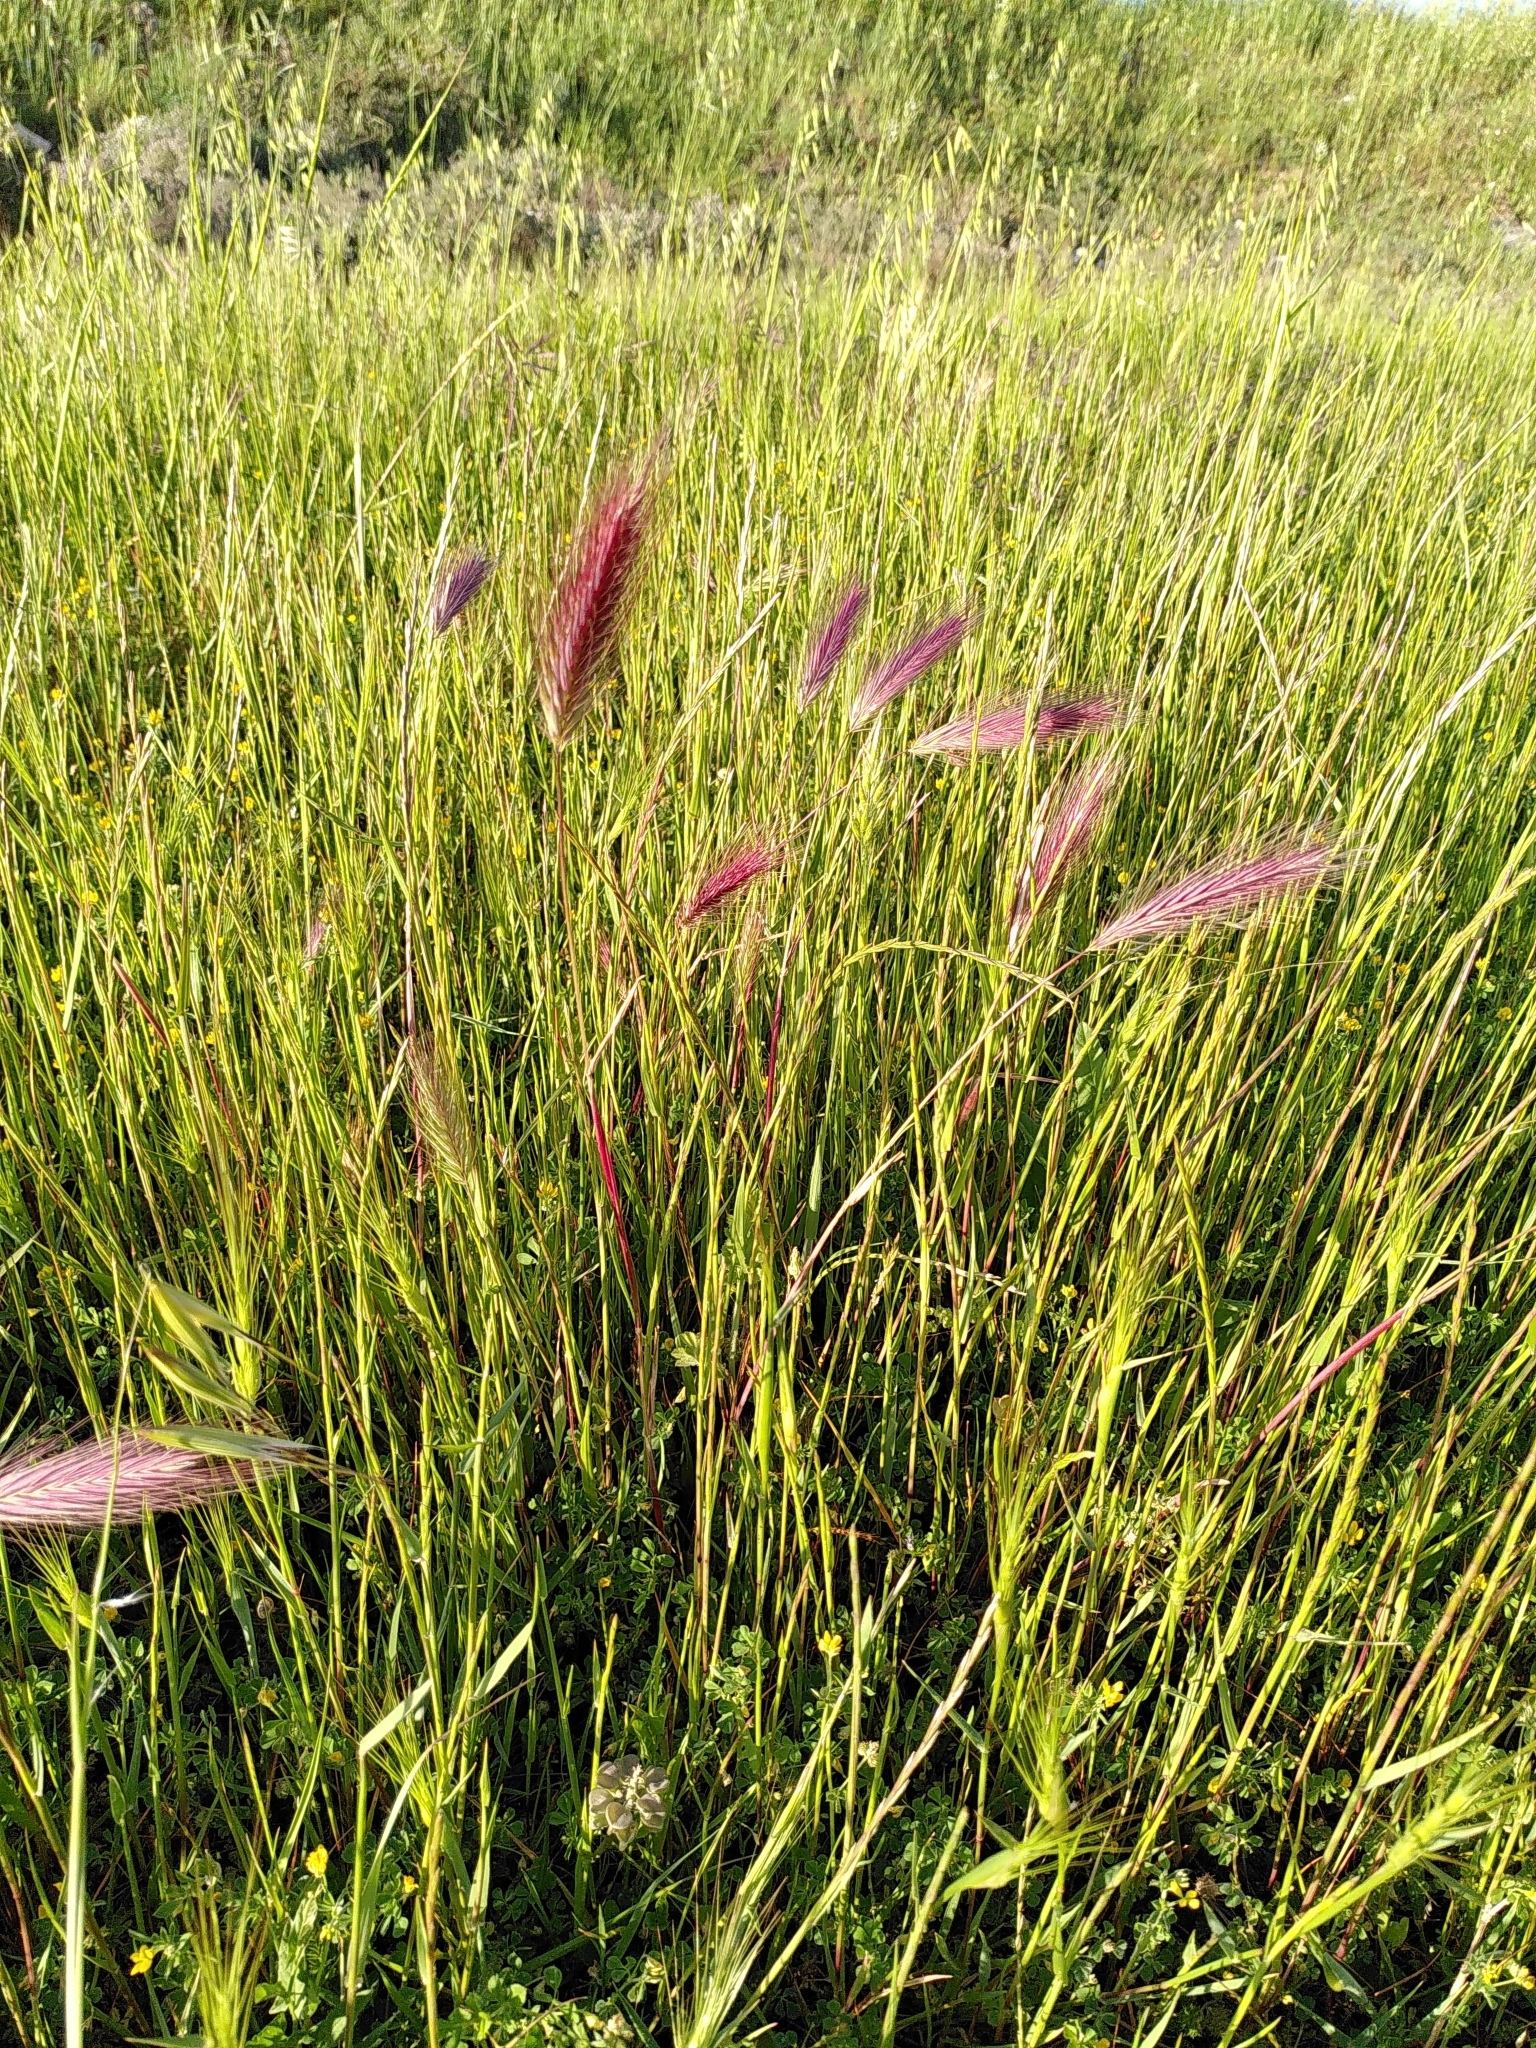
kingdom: Plantae
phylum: Tracheophyta
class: Liliopsida
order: Poales
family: Poaceae
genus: Hordeum
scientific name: Hordeum murinum
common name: Wall barley
